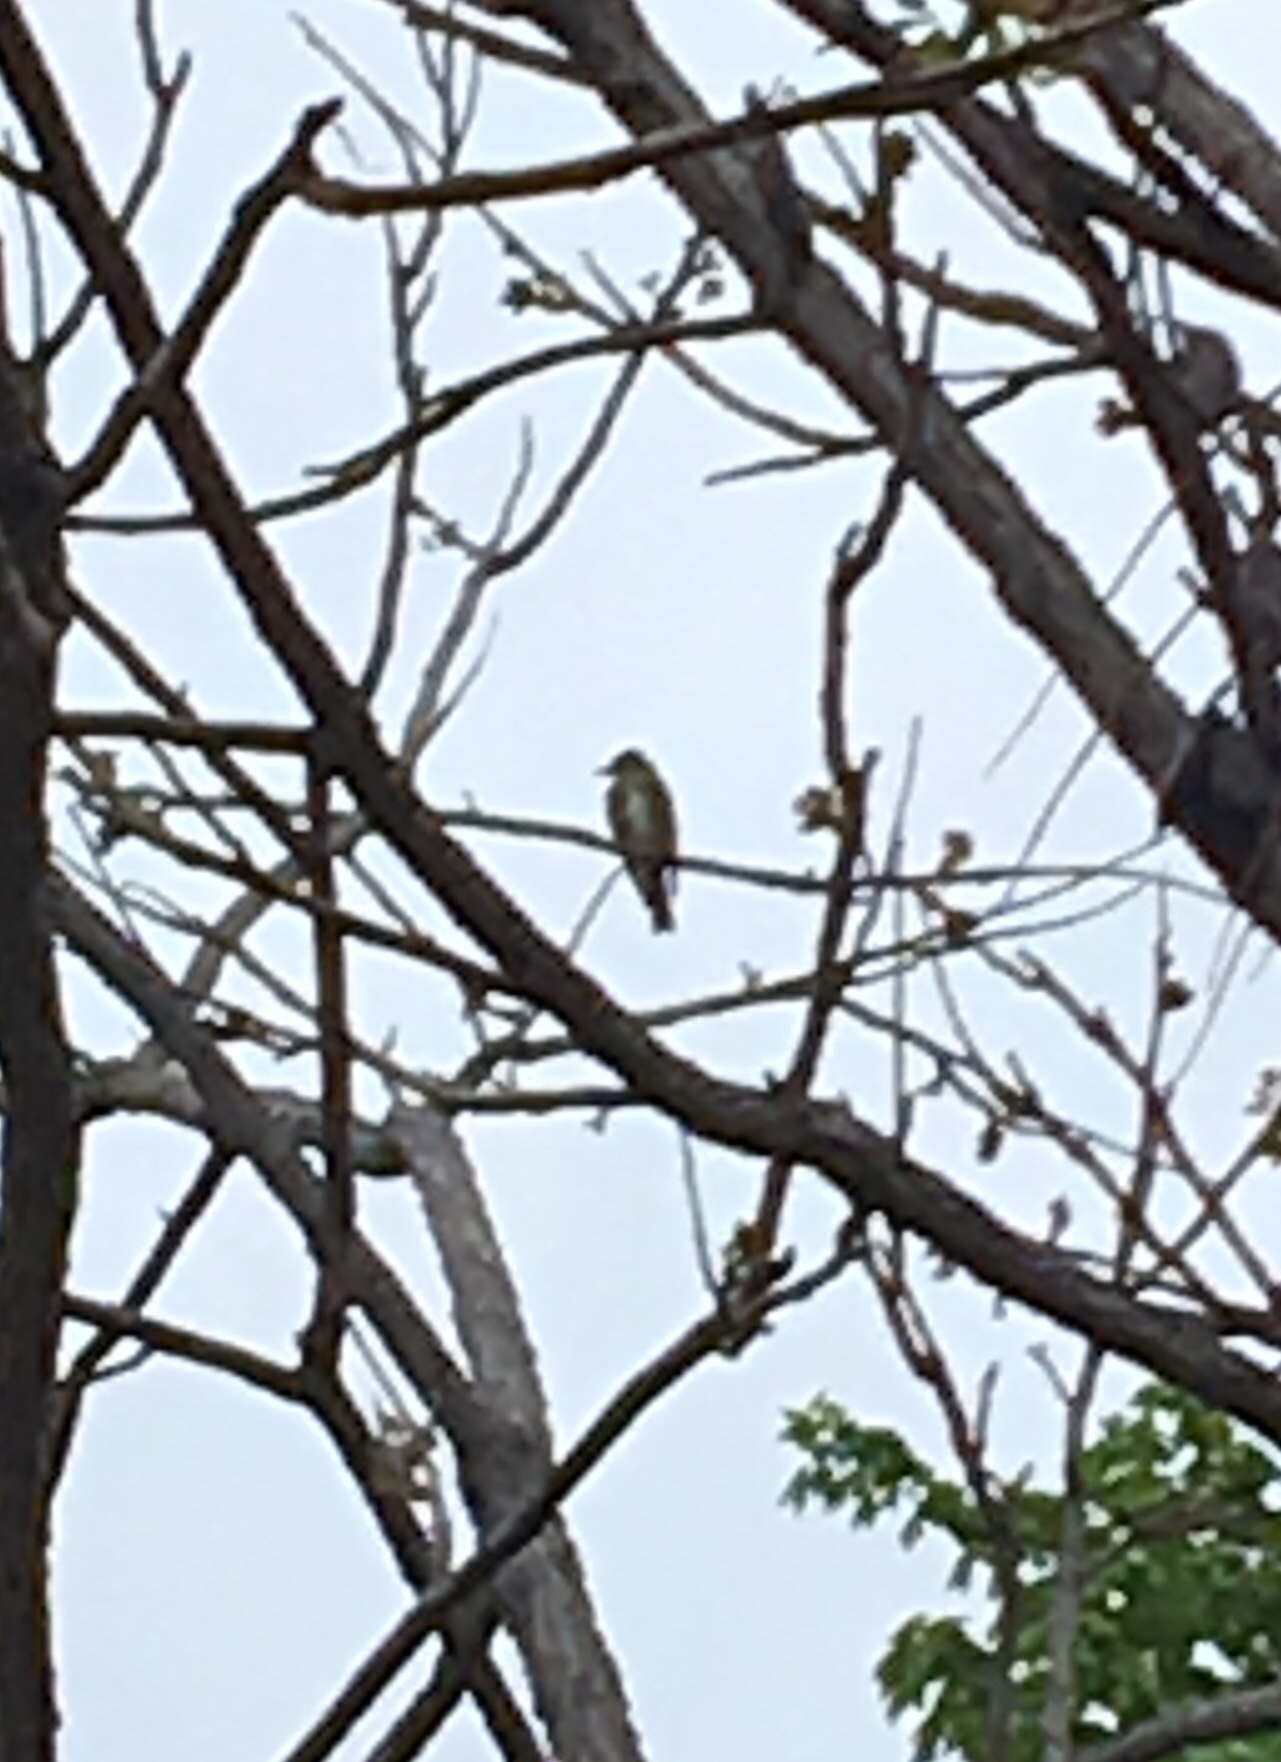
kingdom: Animalia
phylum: Chordata
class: Aves
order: Passeriformes
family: Tyrannidae
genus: Contopus
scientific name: Contopus cooperi
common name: Olive-sided flycatcher
